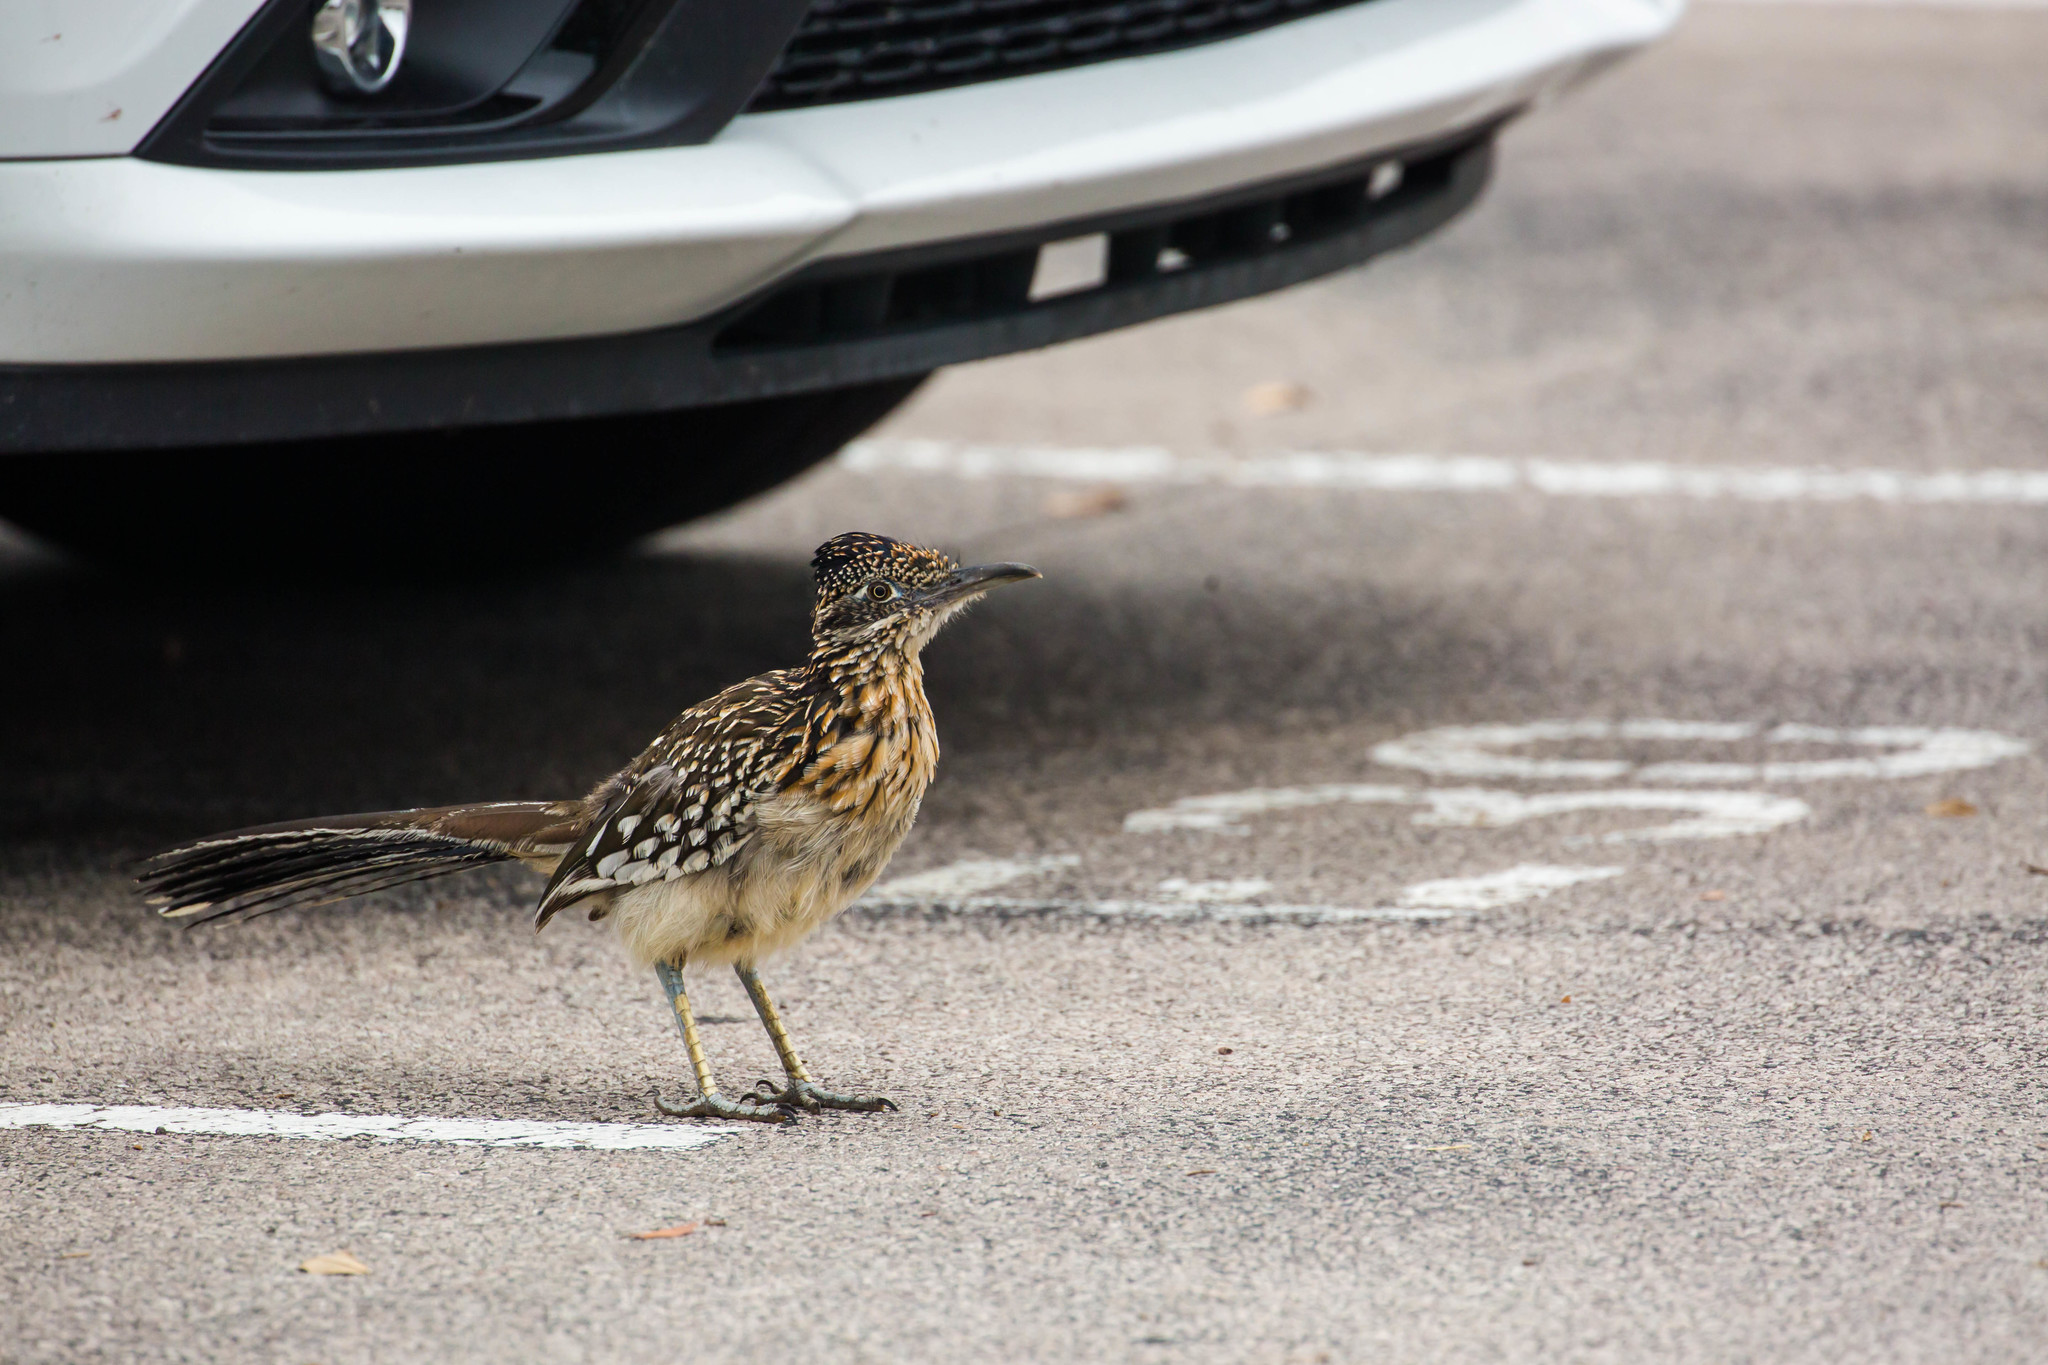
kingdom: Animalia
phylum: Chordata
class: Aves
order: Cuculiformes
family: Cuculidae
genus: Geococcyx
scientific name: Geococcyx californianus
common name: Greater roadrunner
